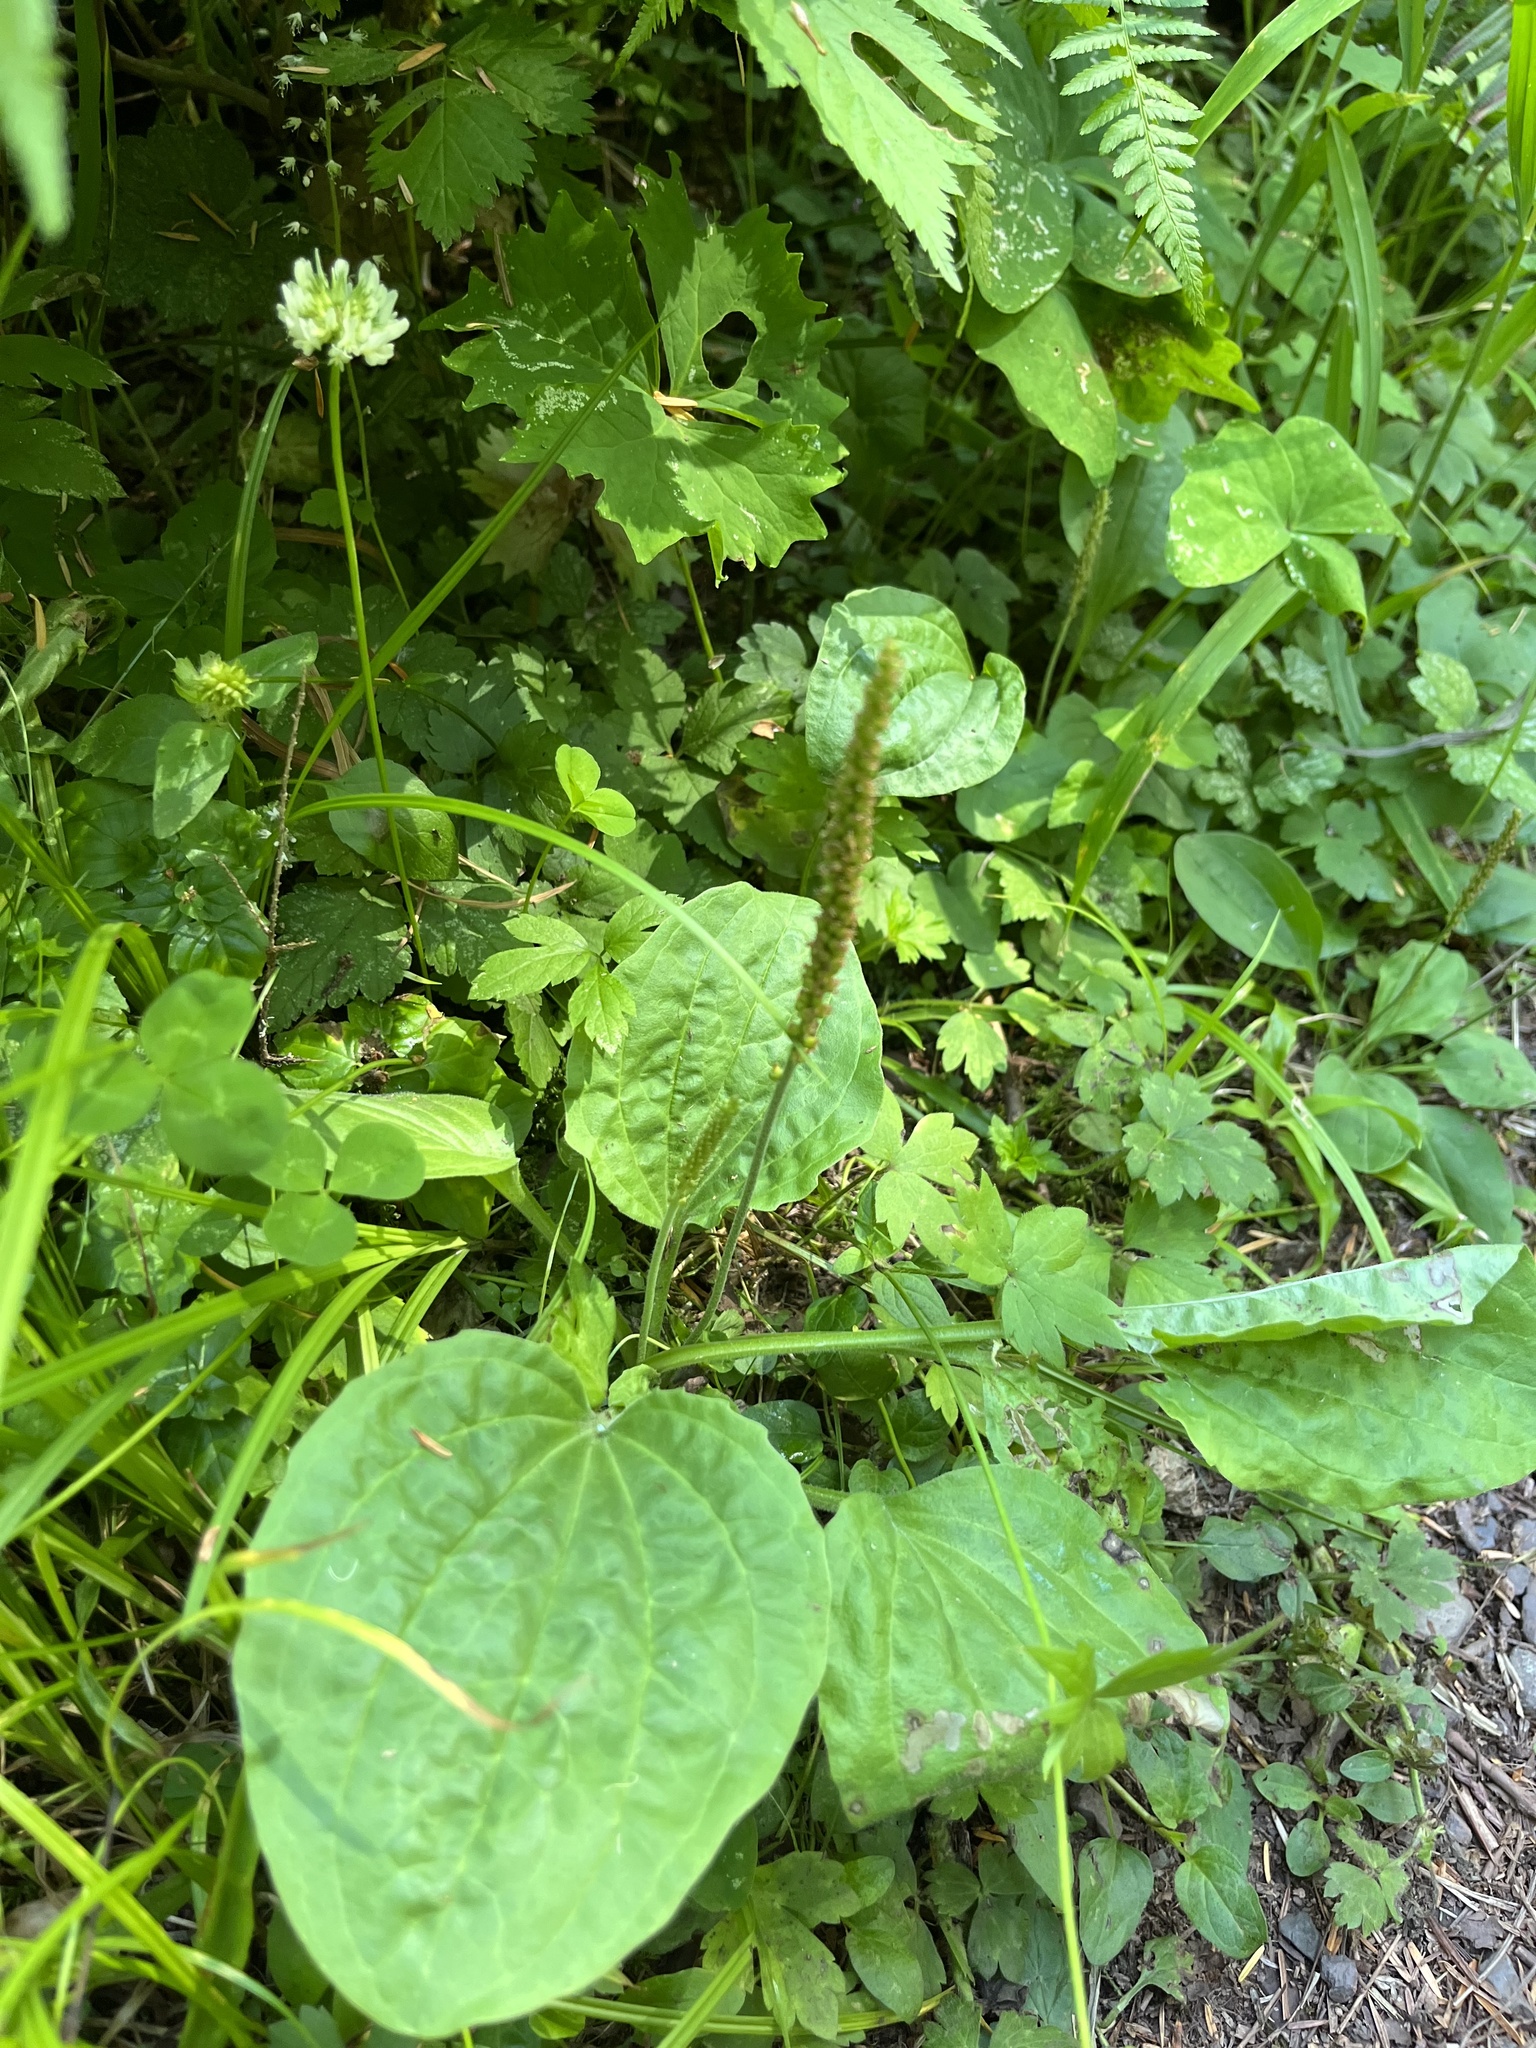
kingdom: Plantae
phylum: Tracheophyta
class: Magnoliopsida
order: Lamiales
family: Plantaginaceae
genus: Plantago
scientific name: Plantago major
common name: Common plantain
